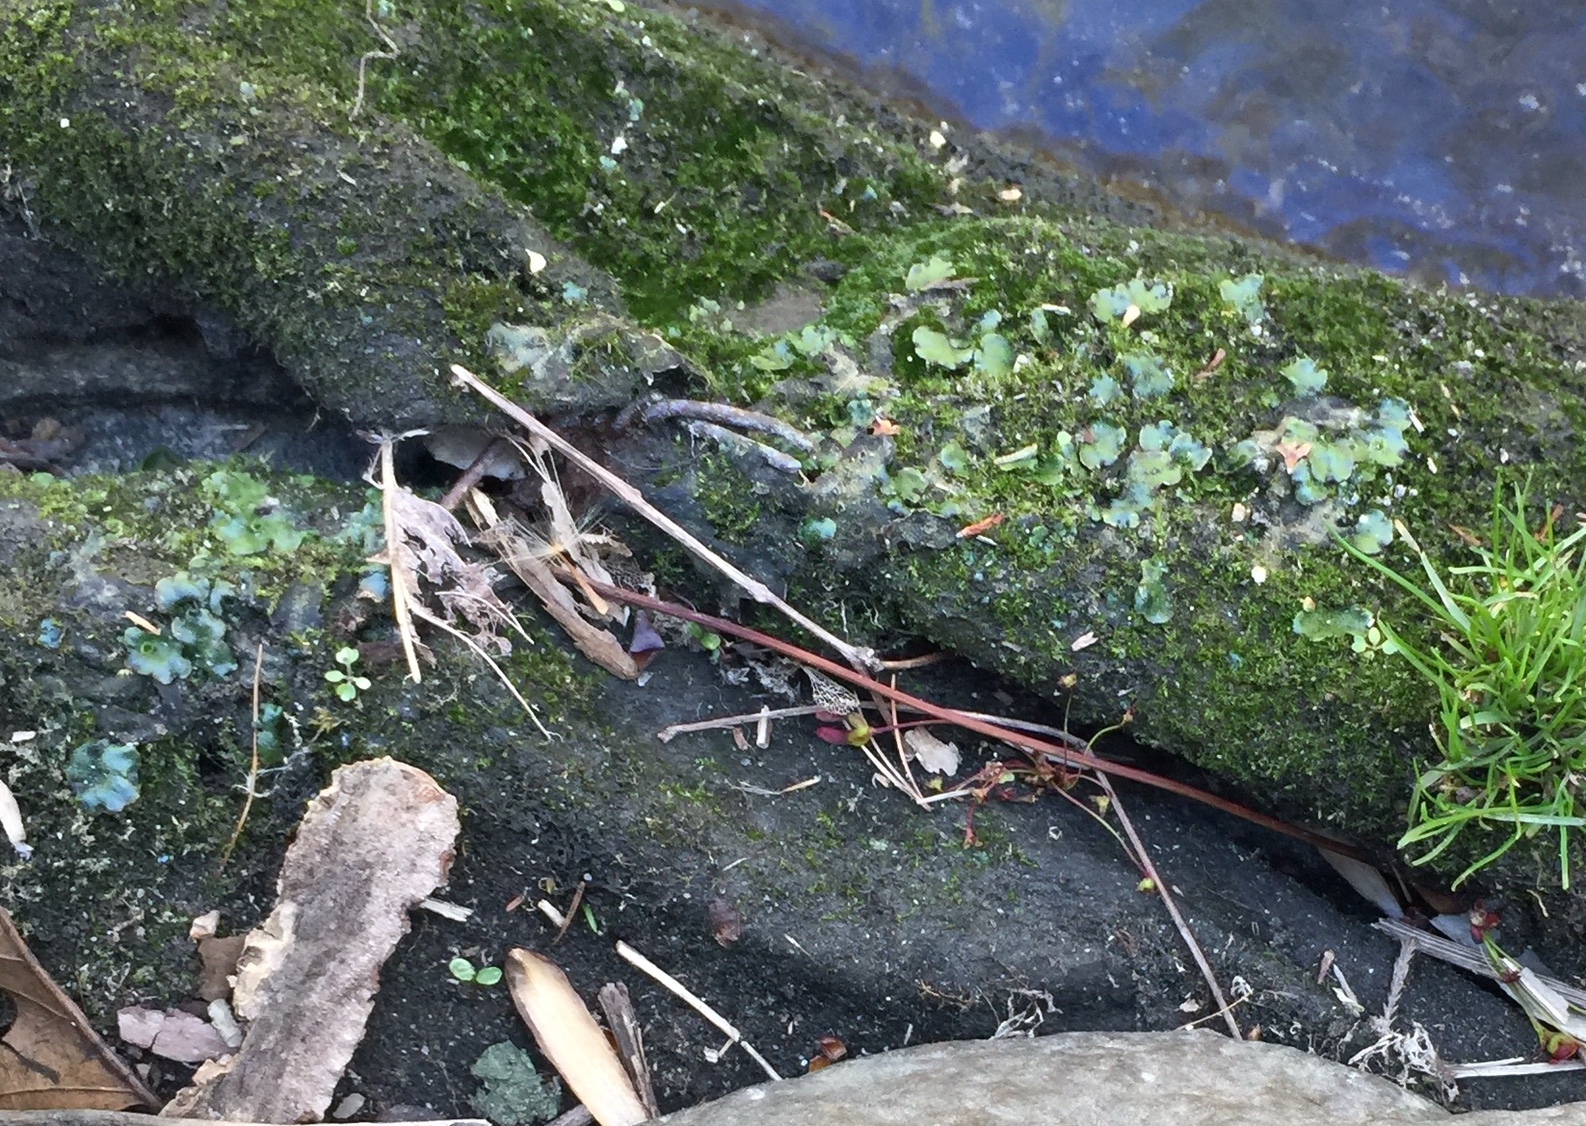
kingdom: Plantae
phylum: Marchantiophyta
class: Marchantiopsida
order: Marchantiales
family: Marchantiaceae
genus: Marchantia
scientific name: Marchantia polymorpha
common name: Common liverwort
